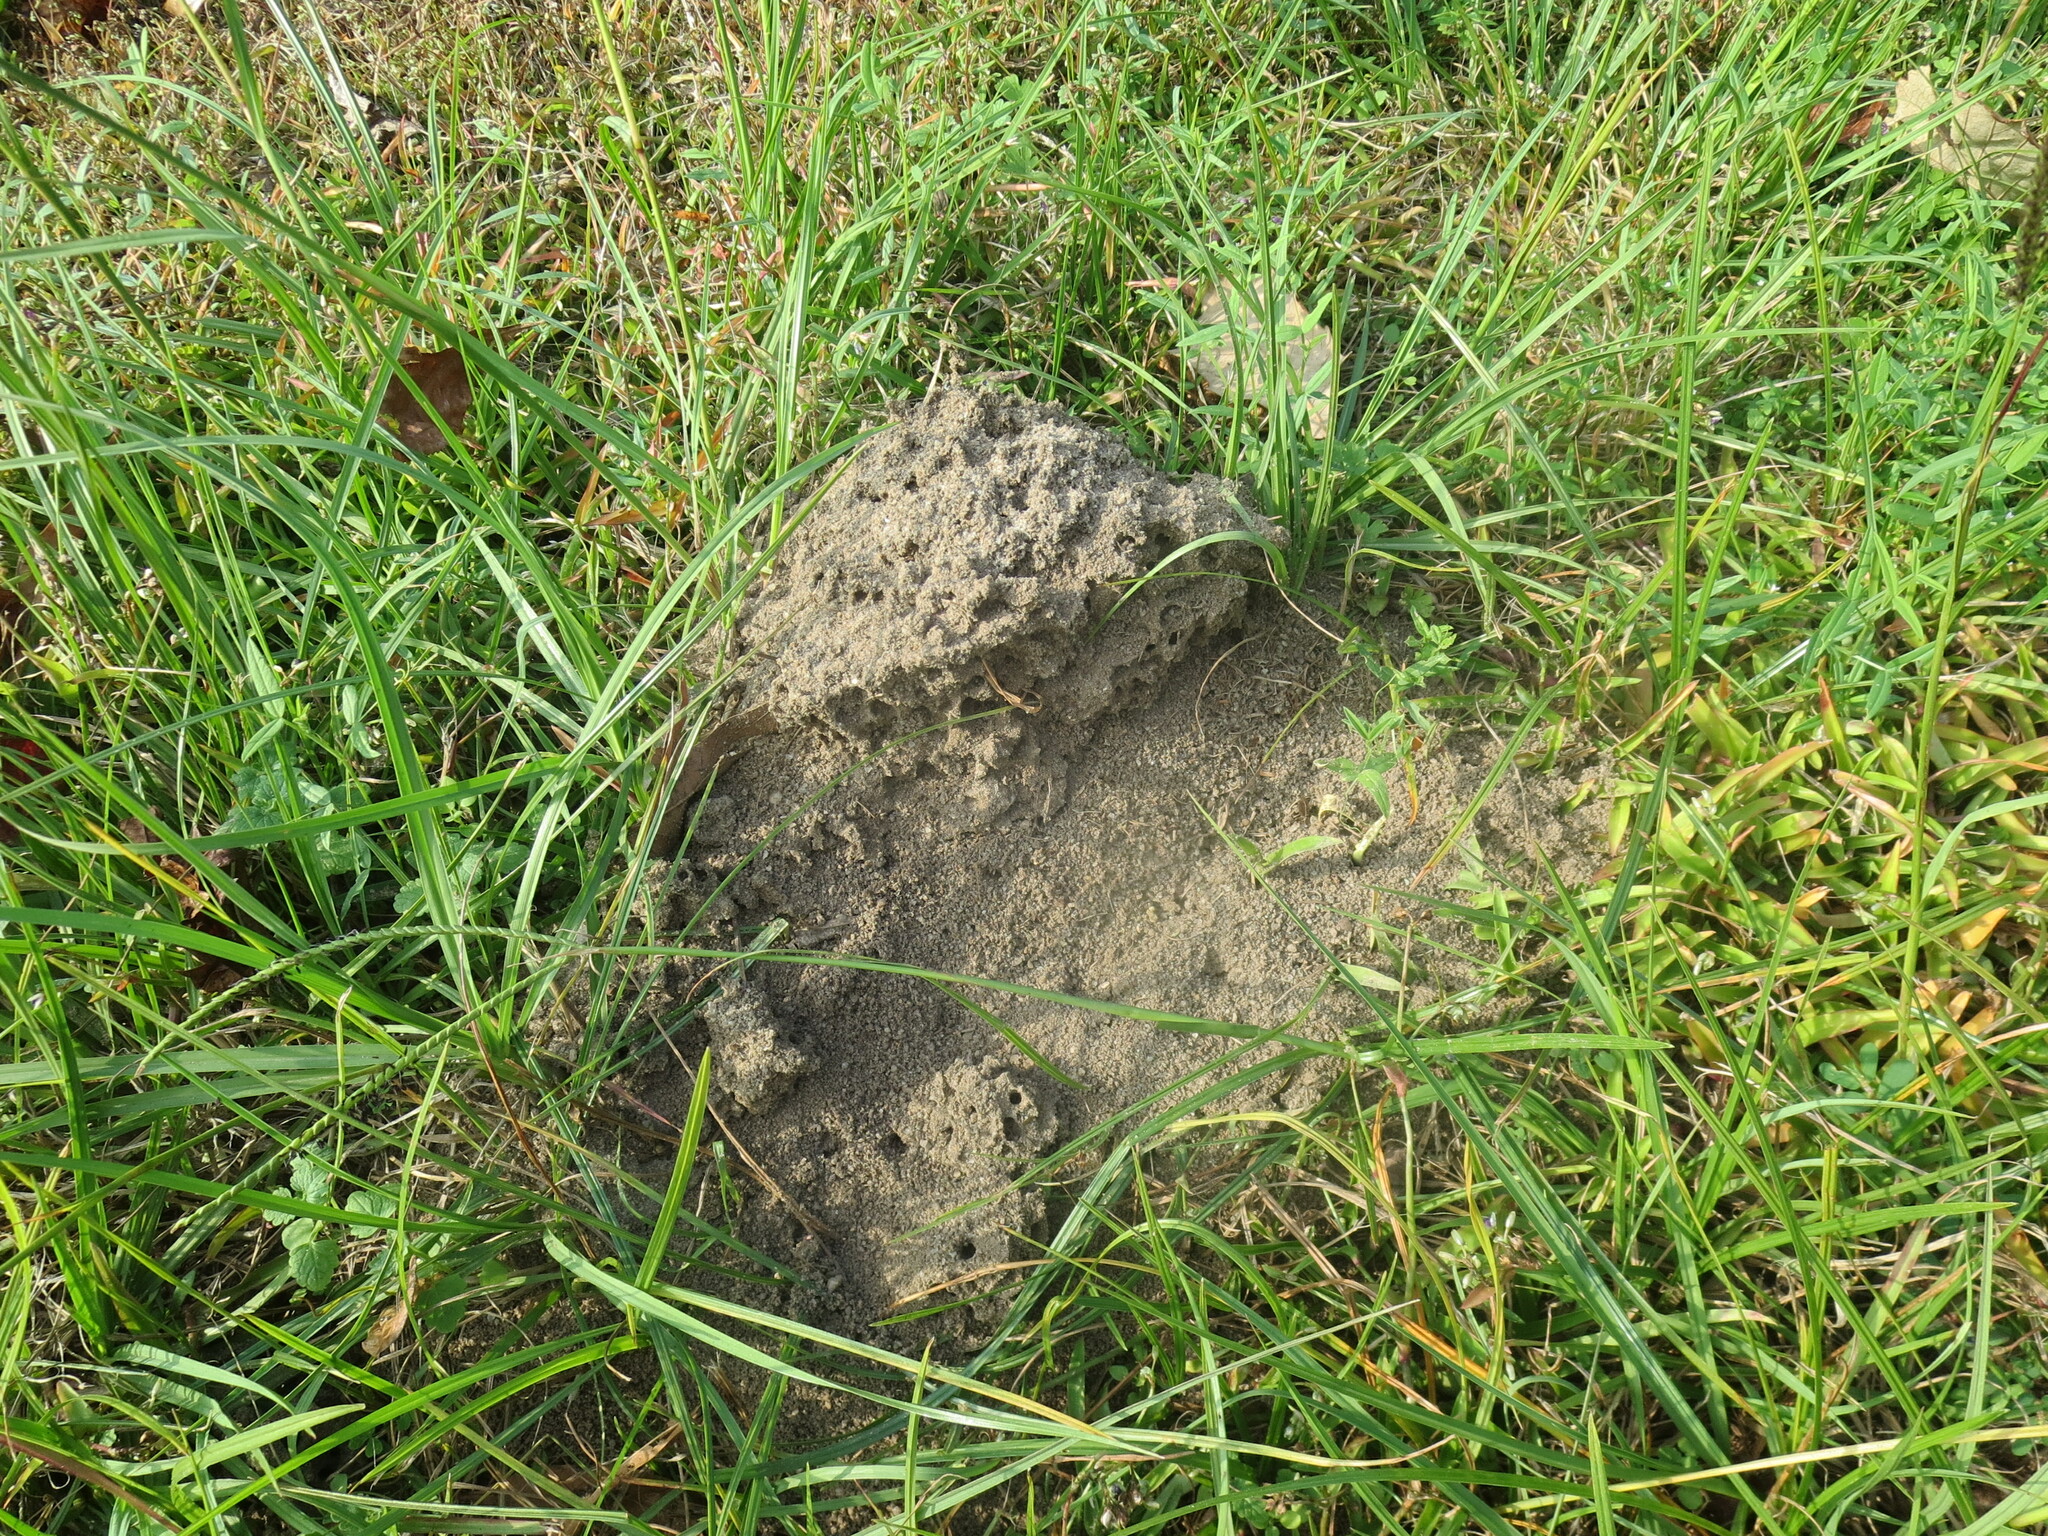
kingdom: Animalia
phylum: Arthropoda
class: Insecta
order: Hymenoptera
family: Formicidae
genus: Solenopsis
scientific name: Solenopsis invicta
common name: Red imported fire ant
